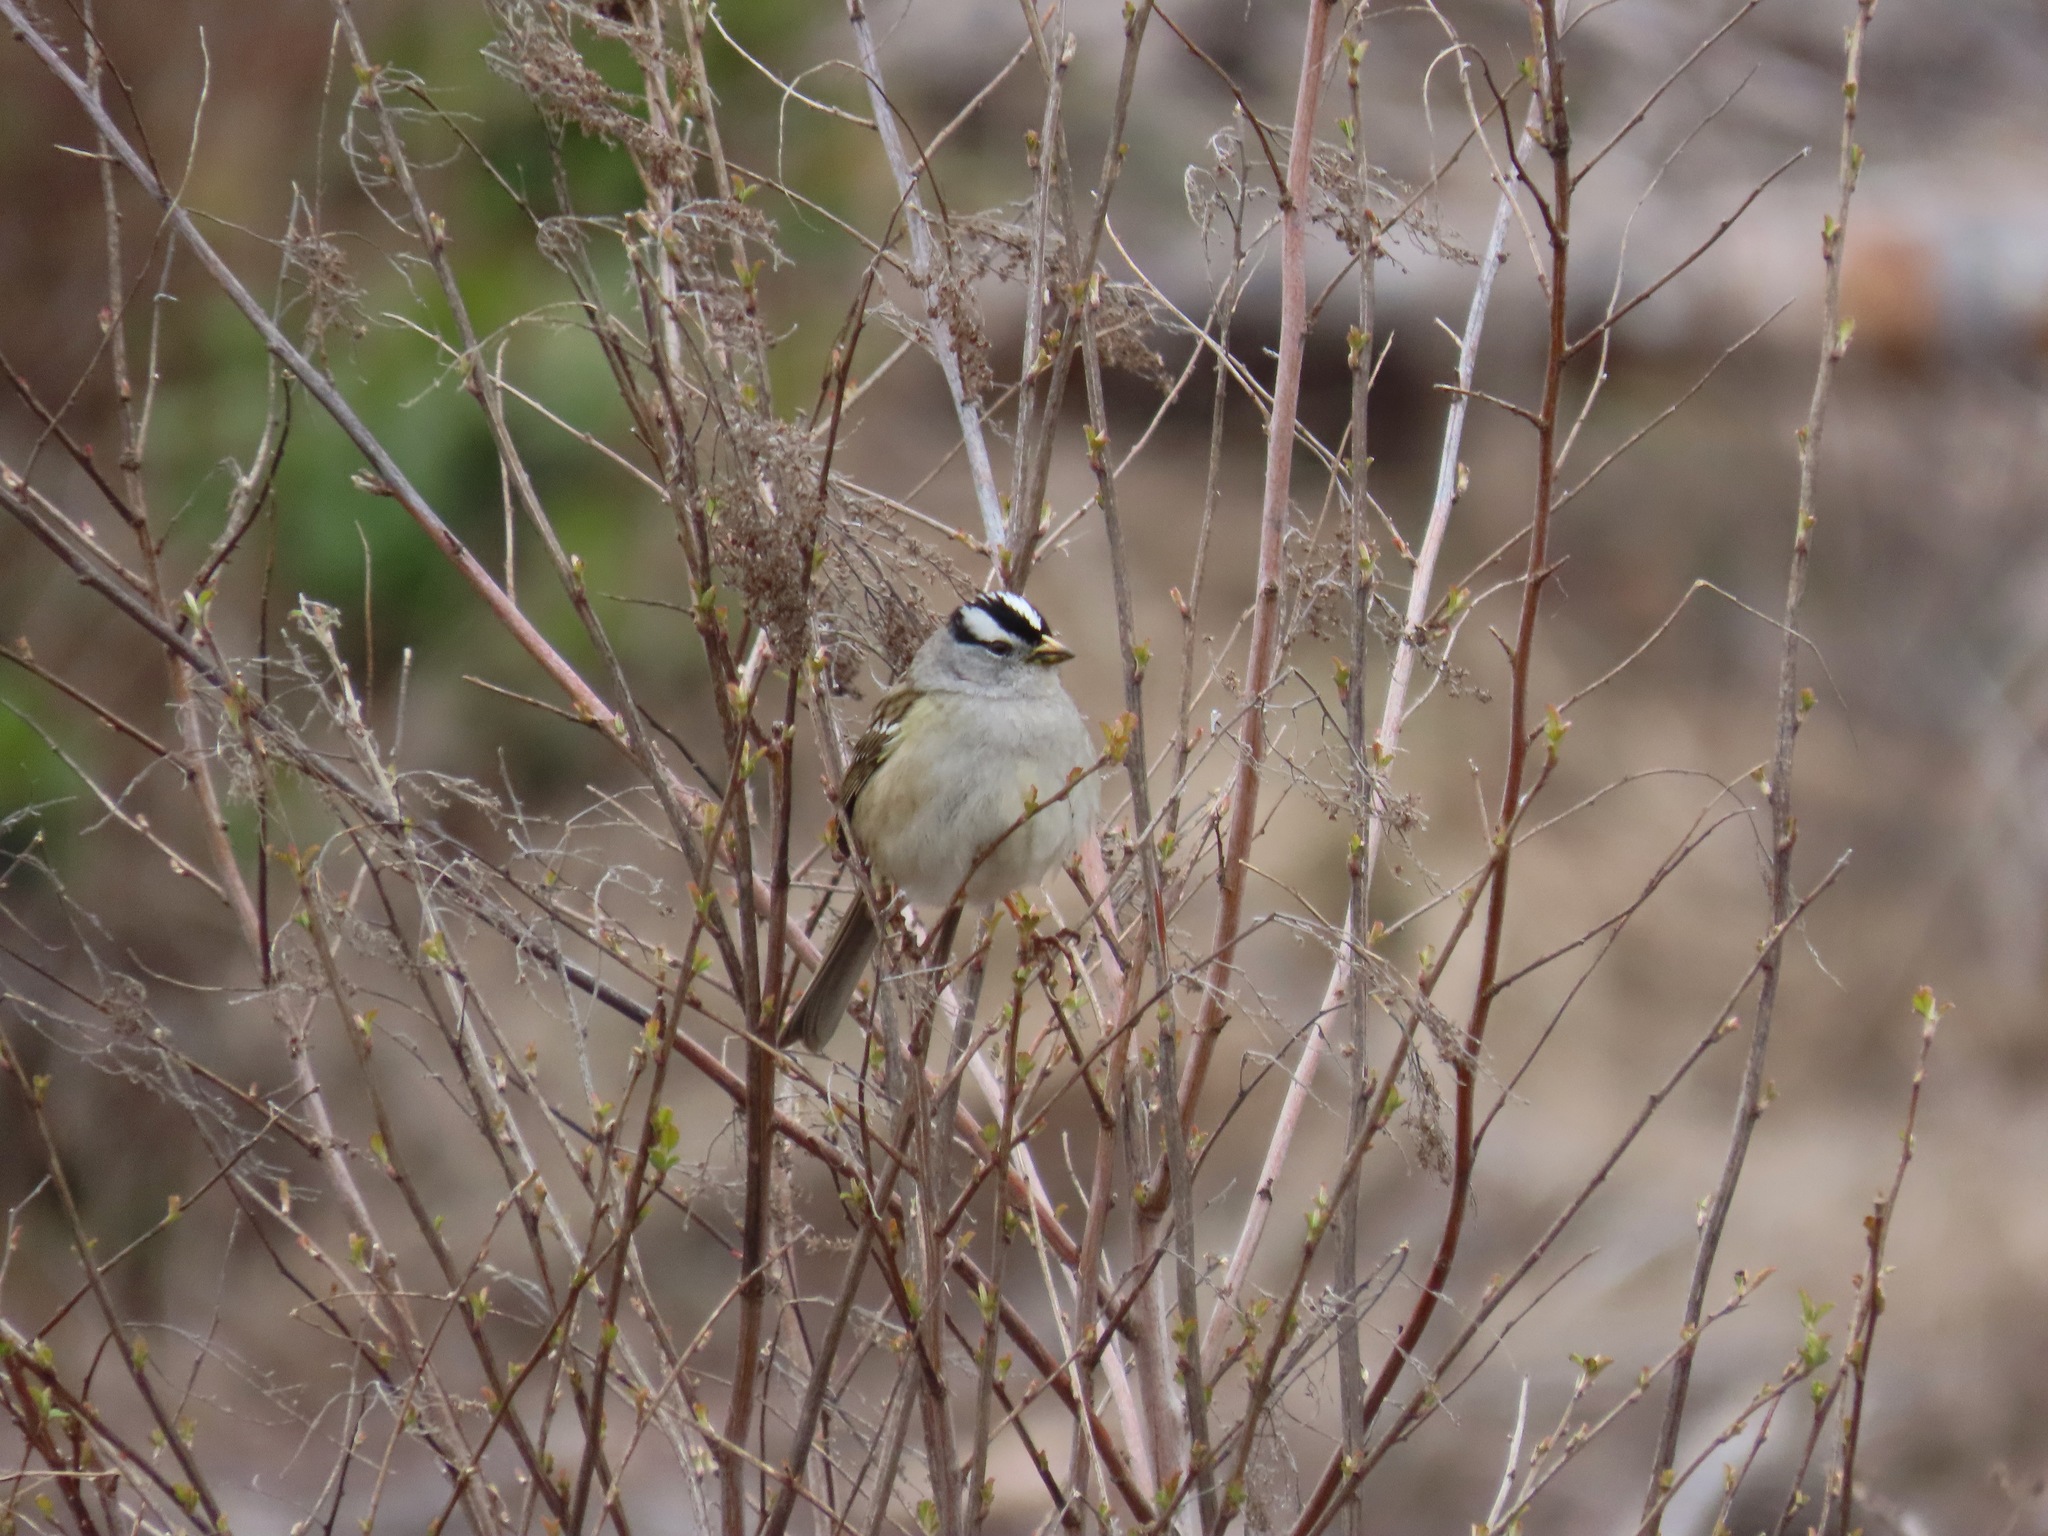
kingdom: Animalia
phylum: Chordata
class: Aves
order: Passeriformes
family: Passerellidae
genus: Zonotrichia
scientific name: Zonotrichia leucophrys
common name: White-crowned sparrow
